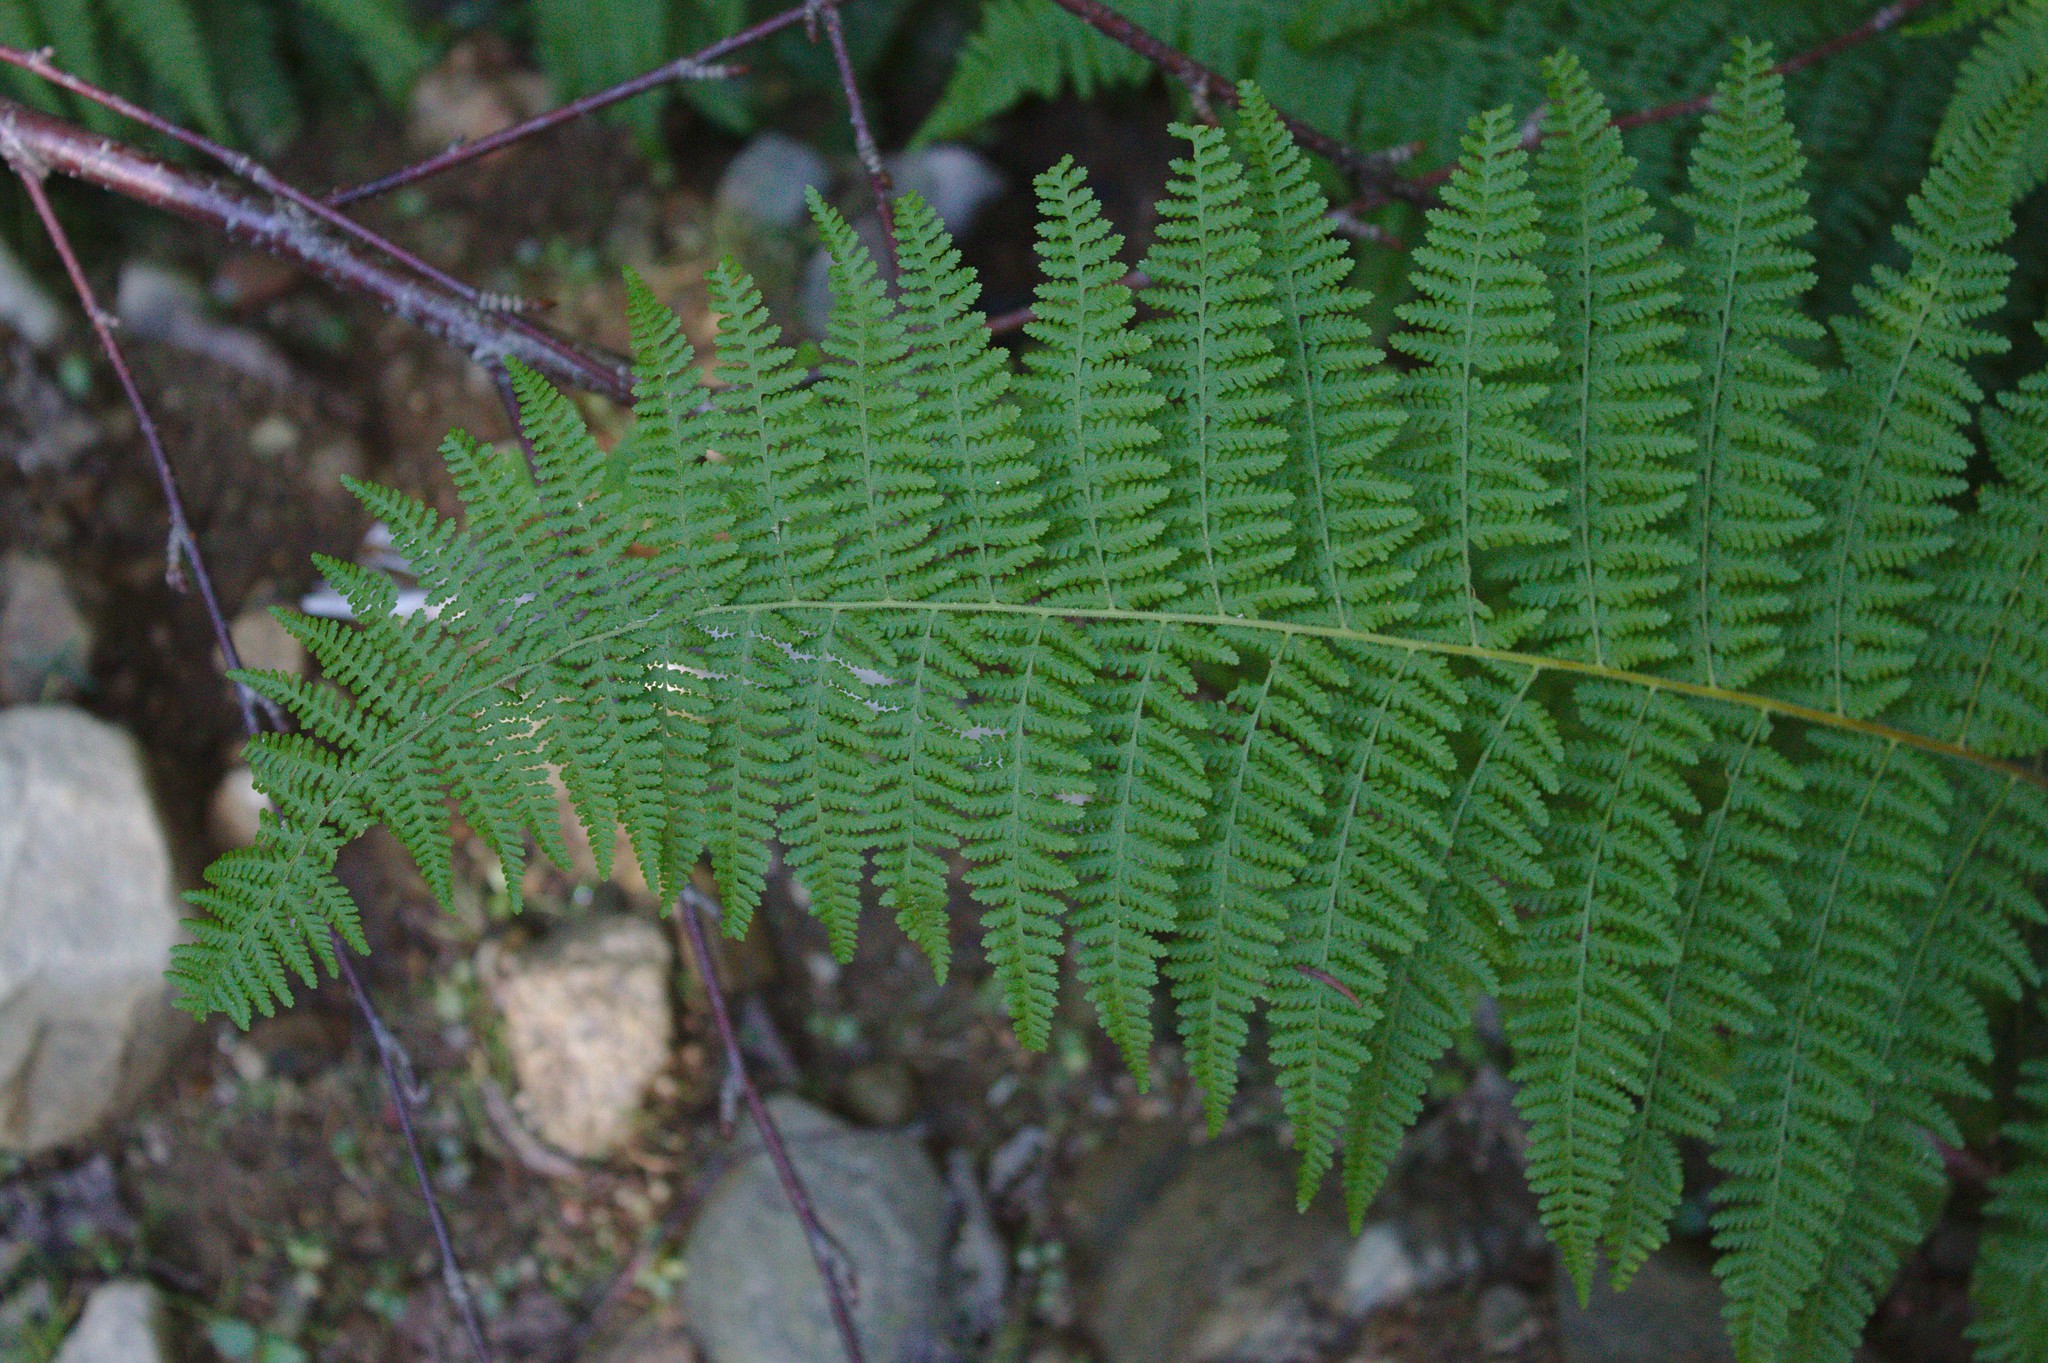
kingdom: Plantae
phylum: Tracheophyta
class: Polypodiopsida
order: Polypodiales
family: Dennstaedtiaceae
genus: Sitobolium
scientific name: Sitobolium punctilobum
